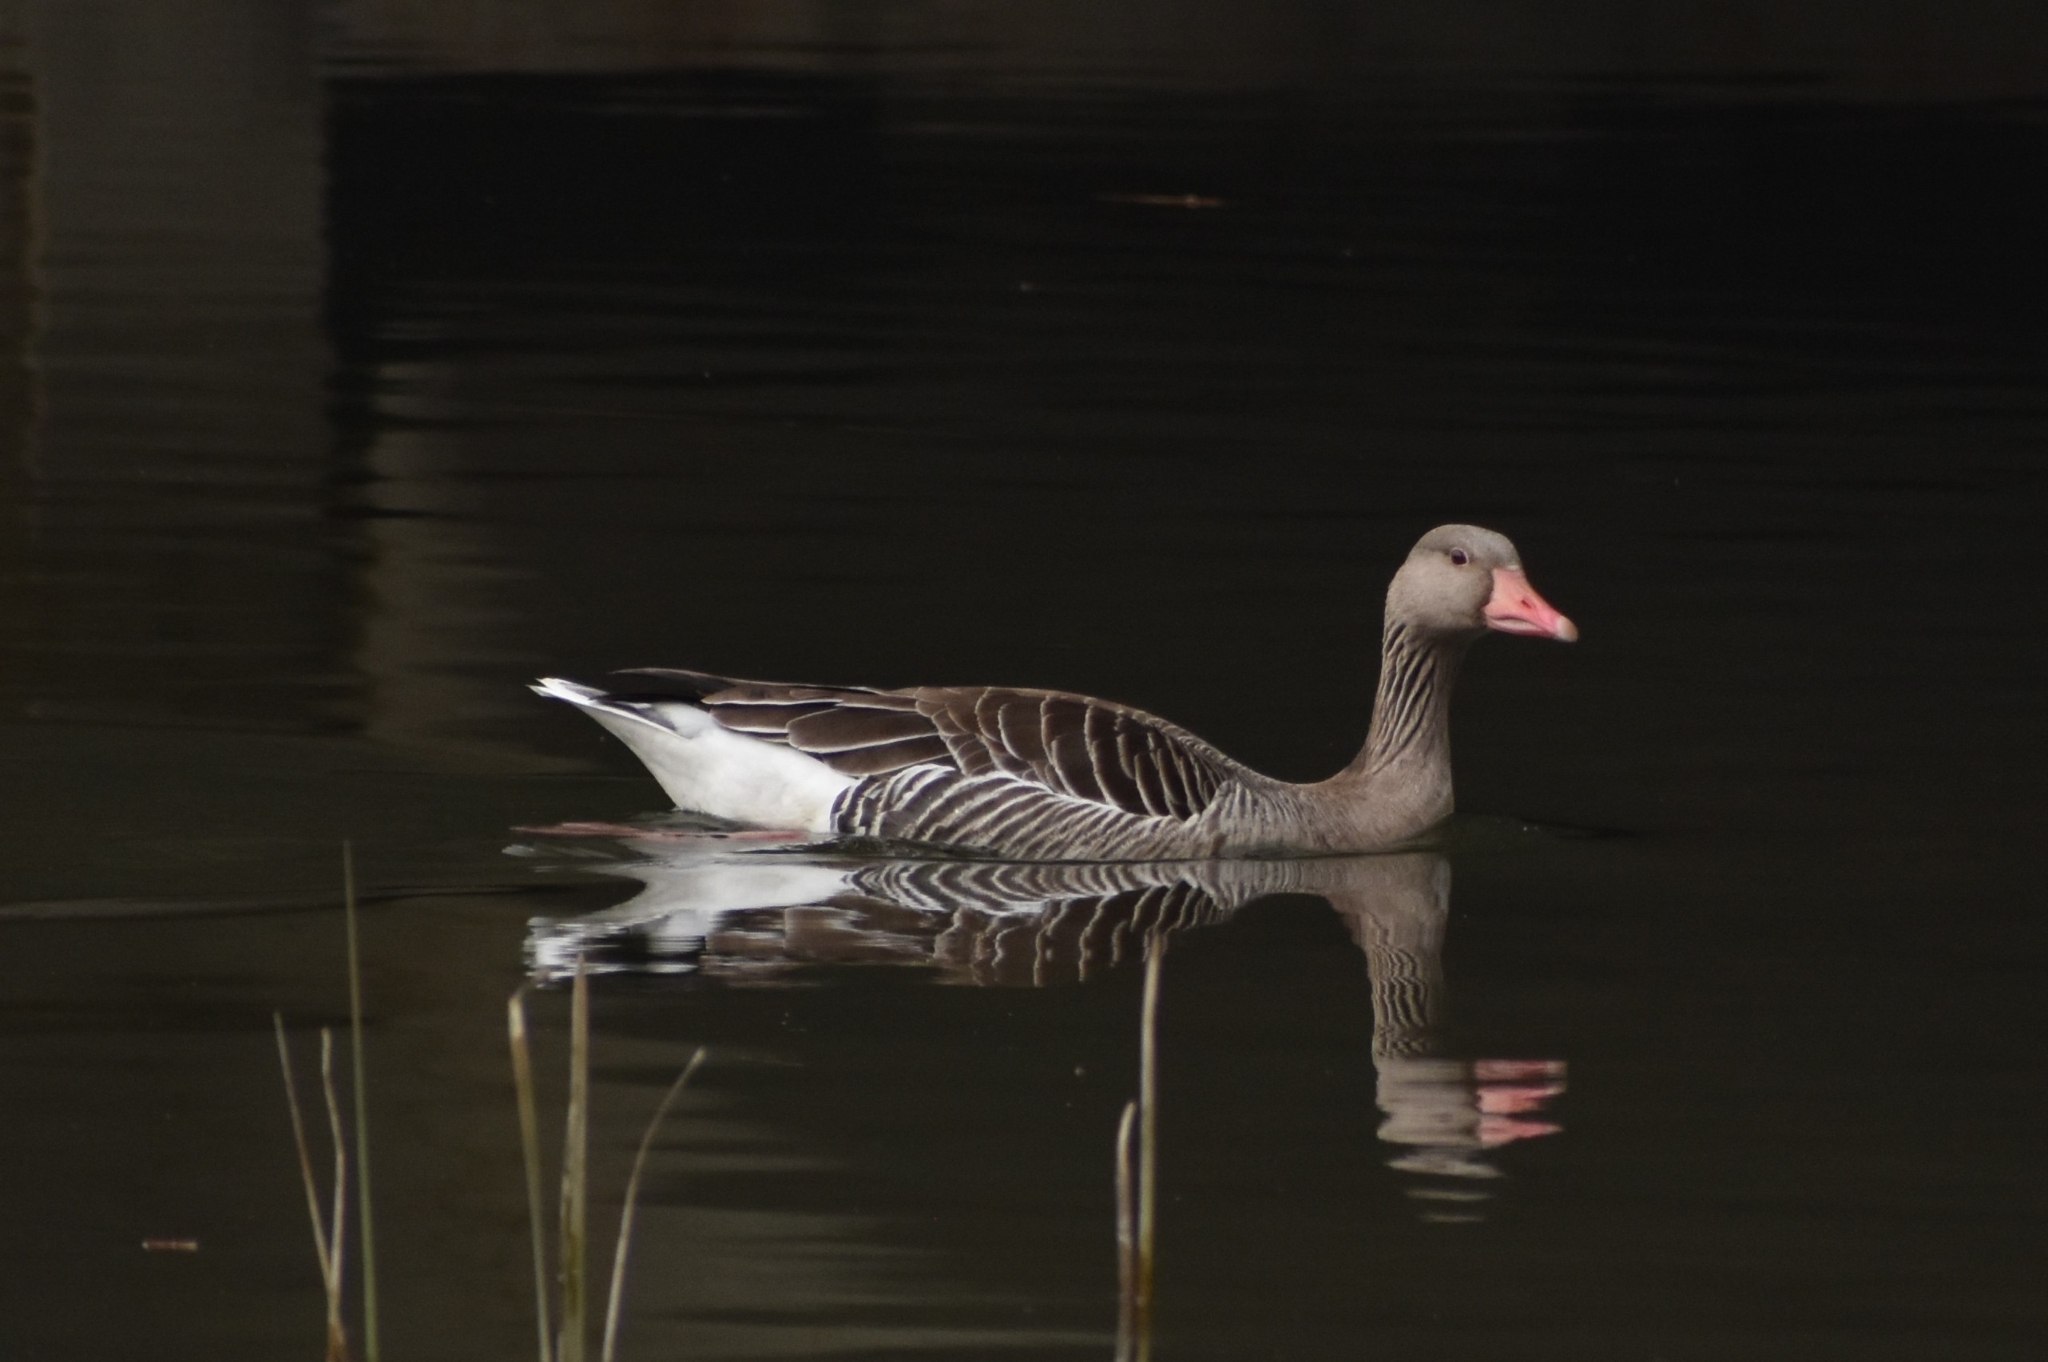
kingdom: Animalia
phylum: Chordata
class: Aves
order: Anseriformes
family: Anatidae
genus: Anser
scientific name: Anser anser
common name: Greylag goose
